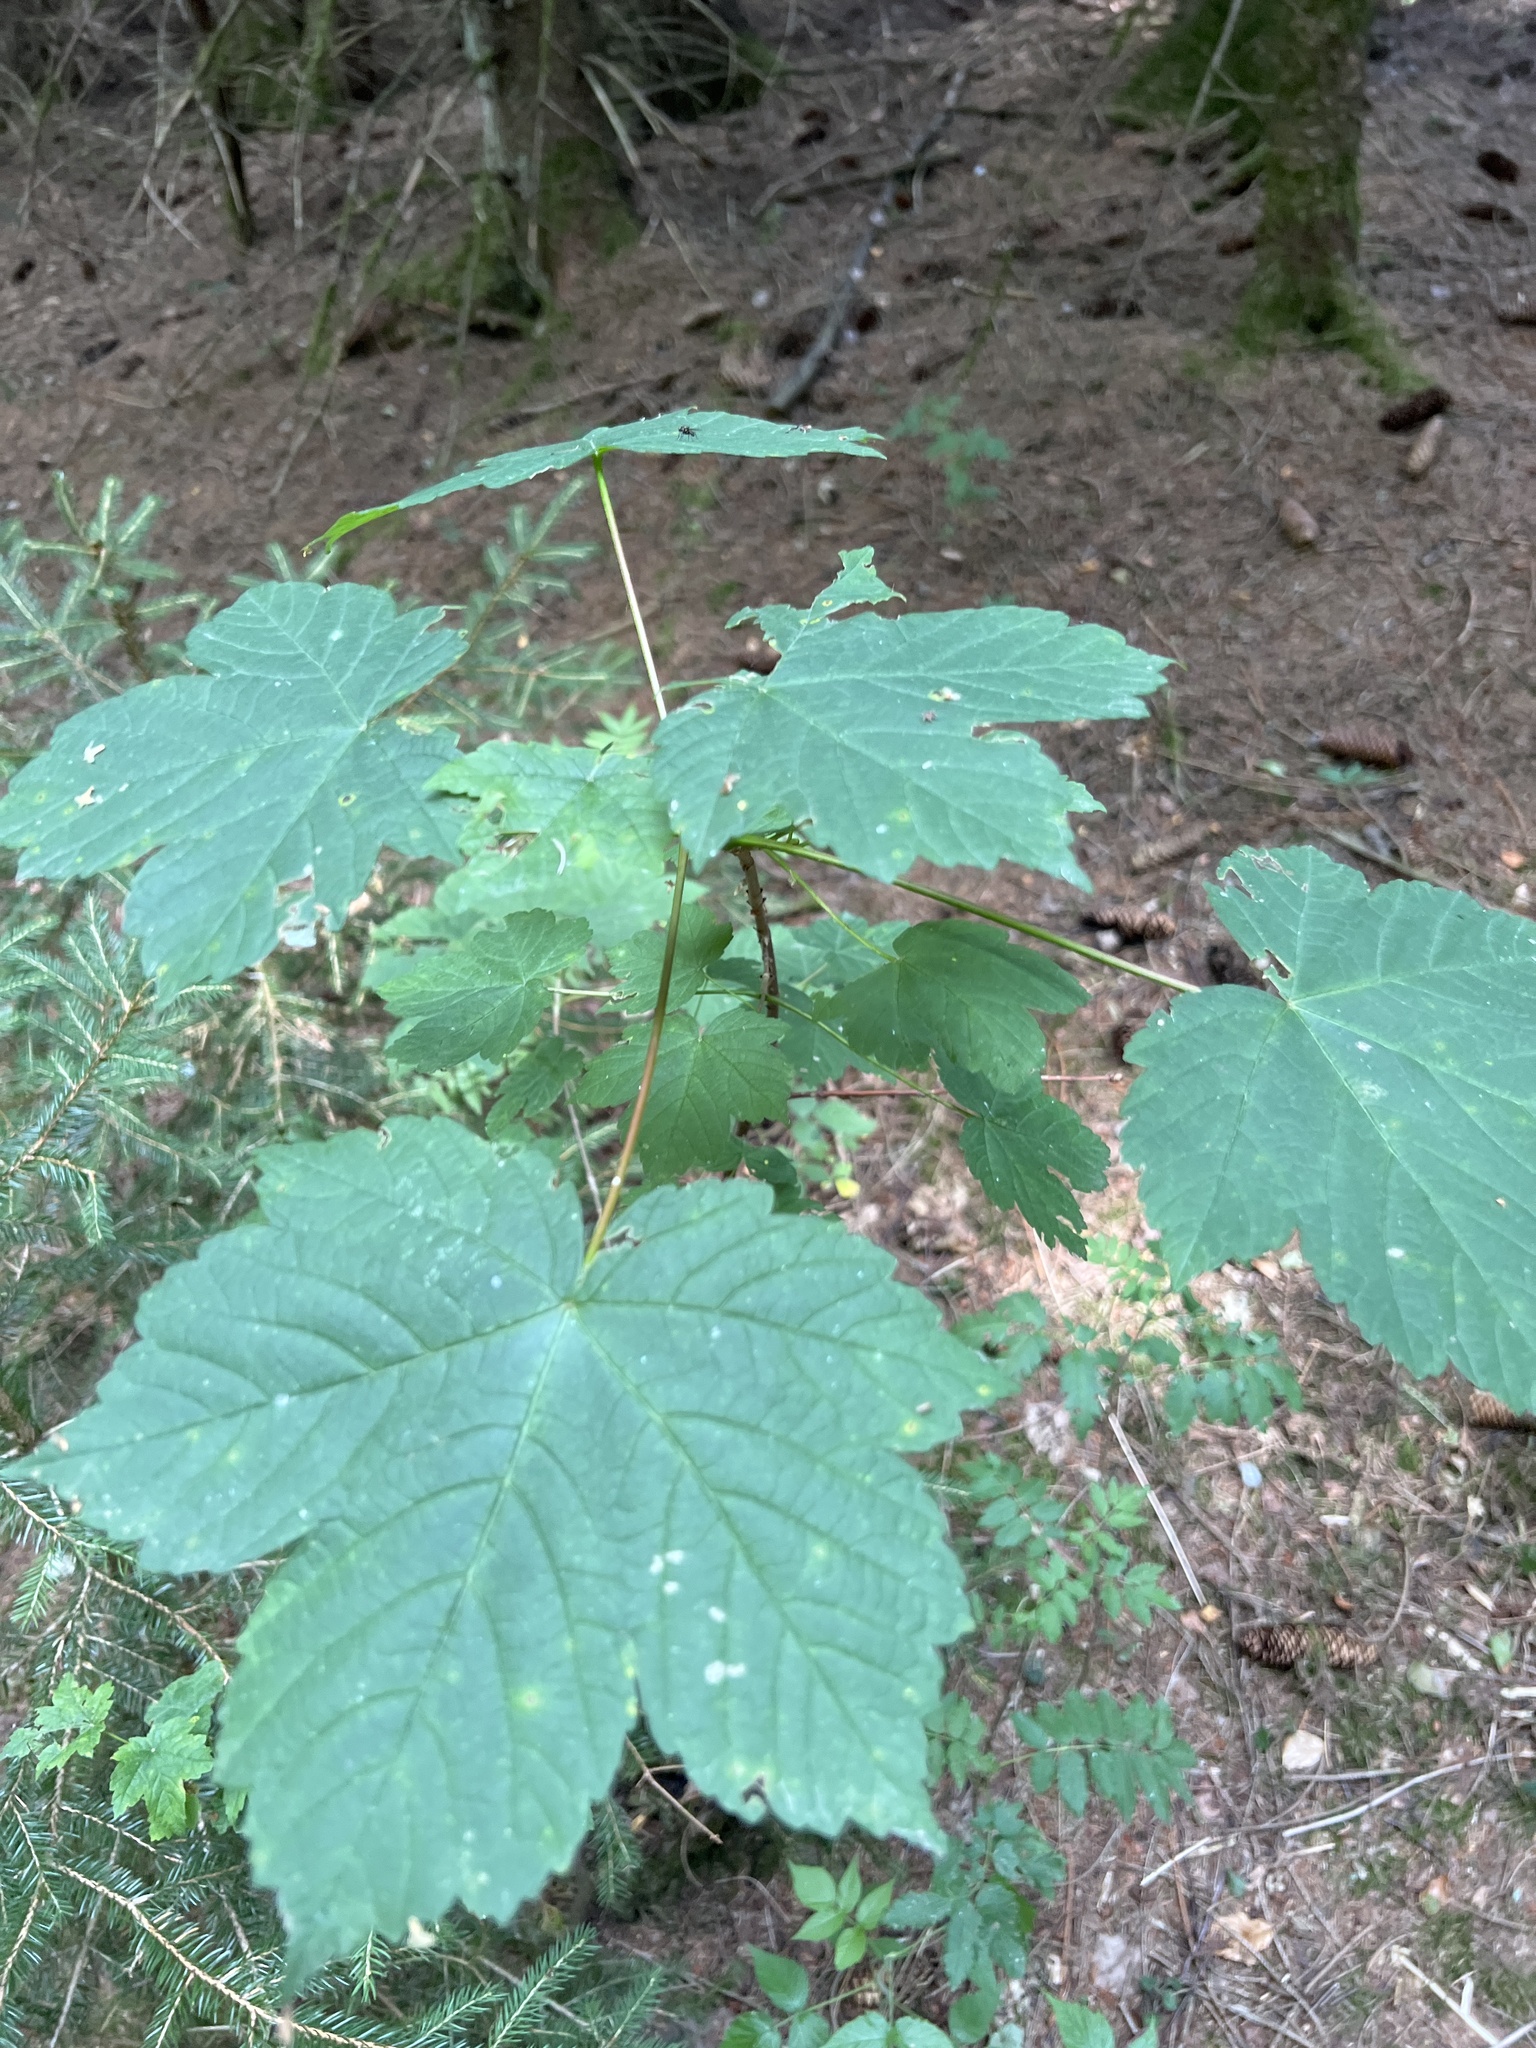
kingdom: Plantae
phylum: Tracheophyta
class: Magnoliopsida
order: Sapindales
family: Sapindaceae
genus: Acer
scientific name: Acer pseudoplatanus
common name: Sycamore
